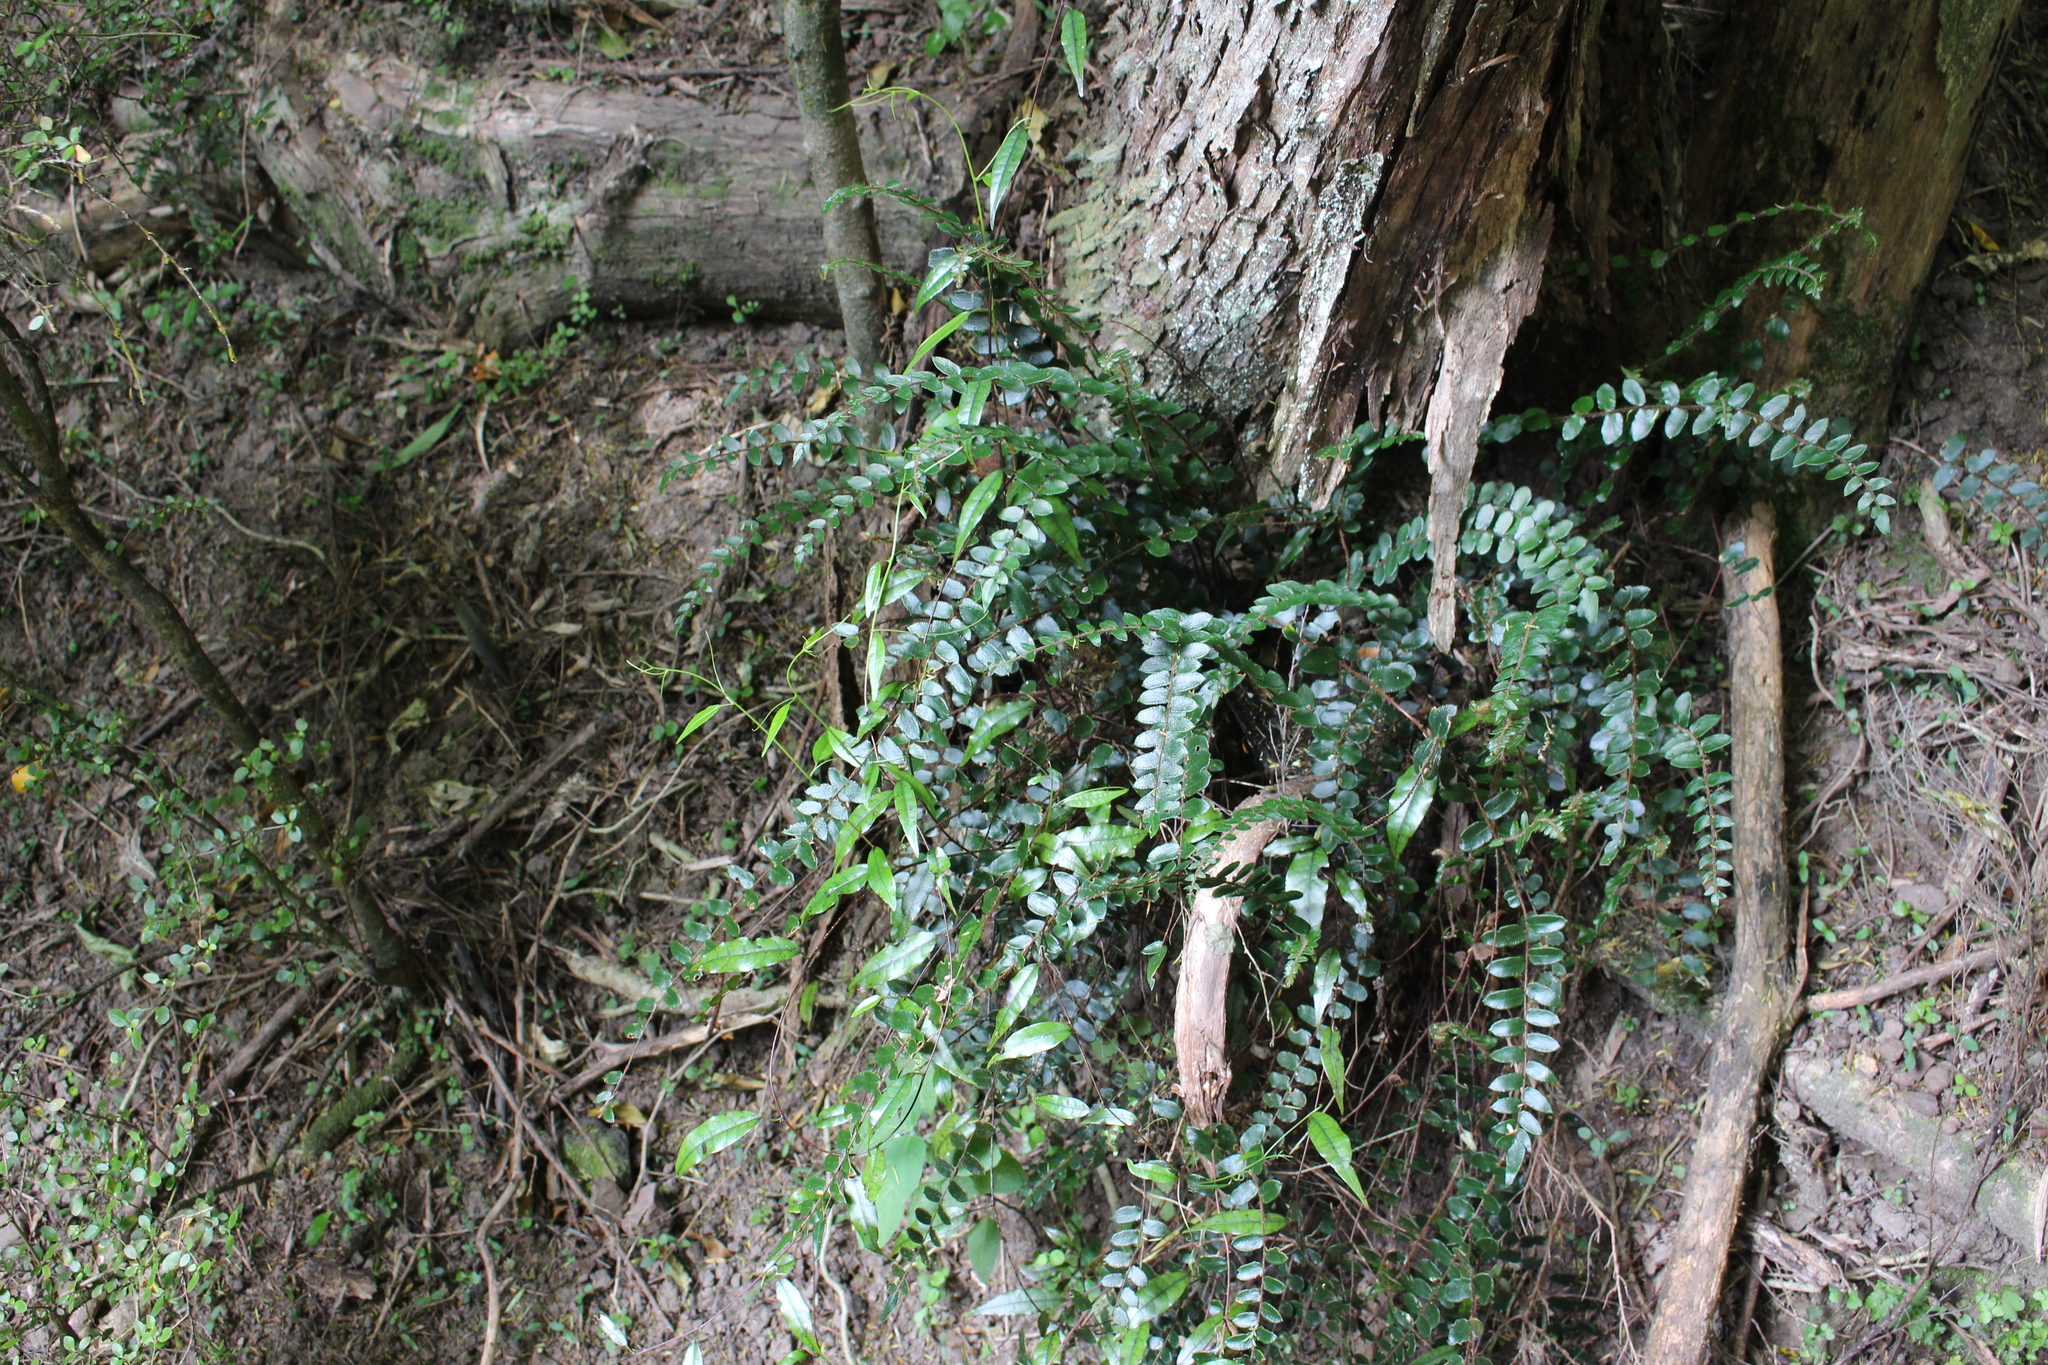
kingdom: Plantae
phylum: Tracheophyta
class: Magnoliopsida
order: Malpighiales
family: Passifloraceae
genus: Passiflora
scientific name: Passiflora tetrandra
